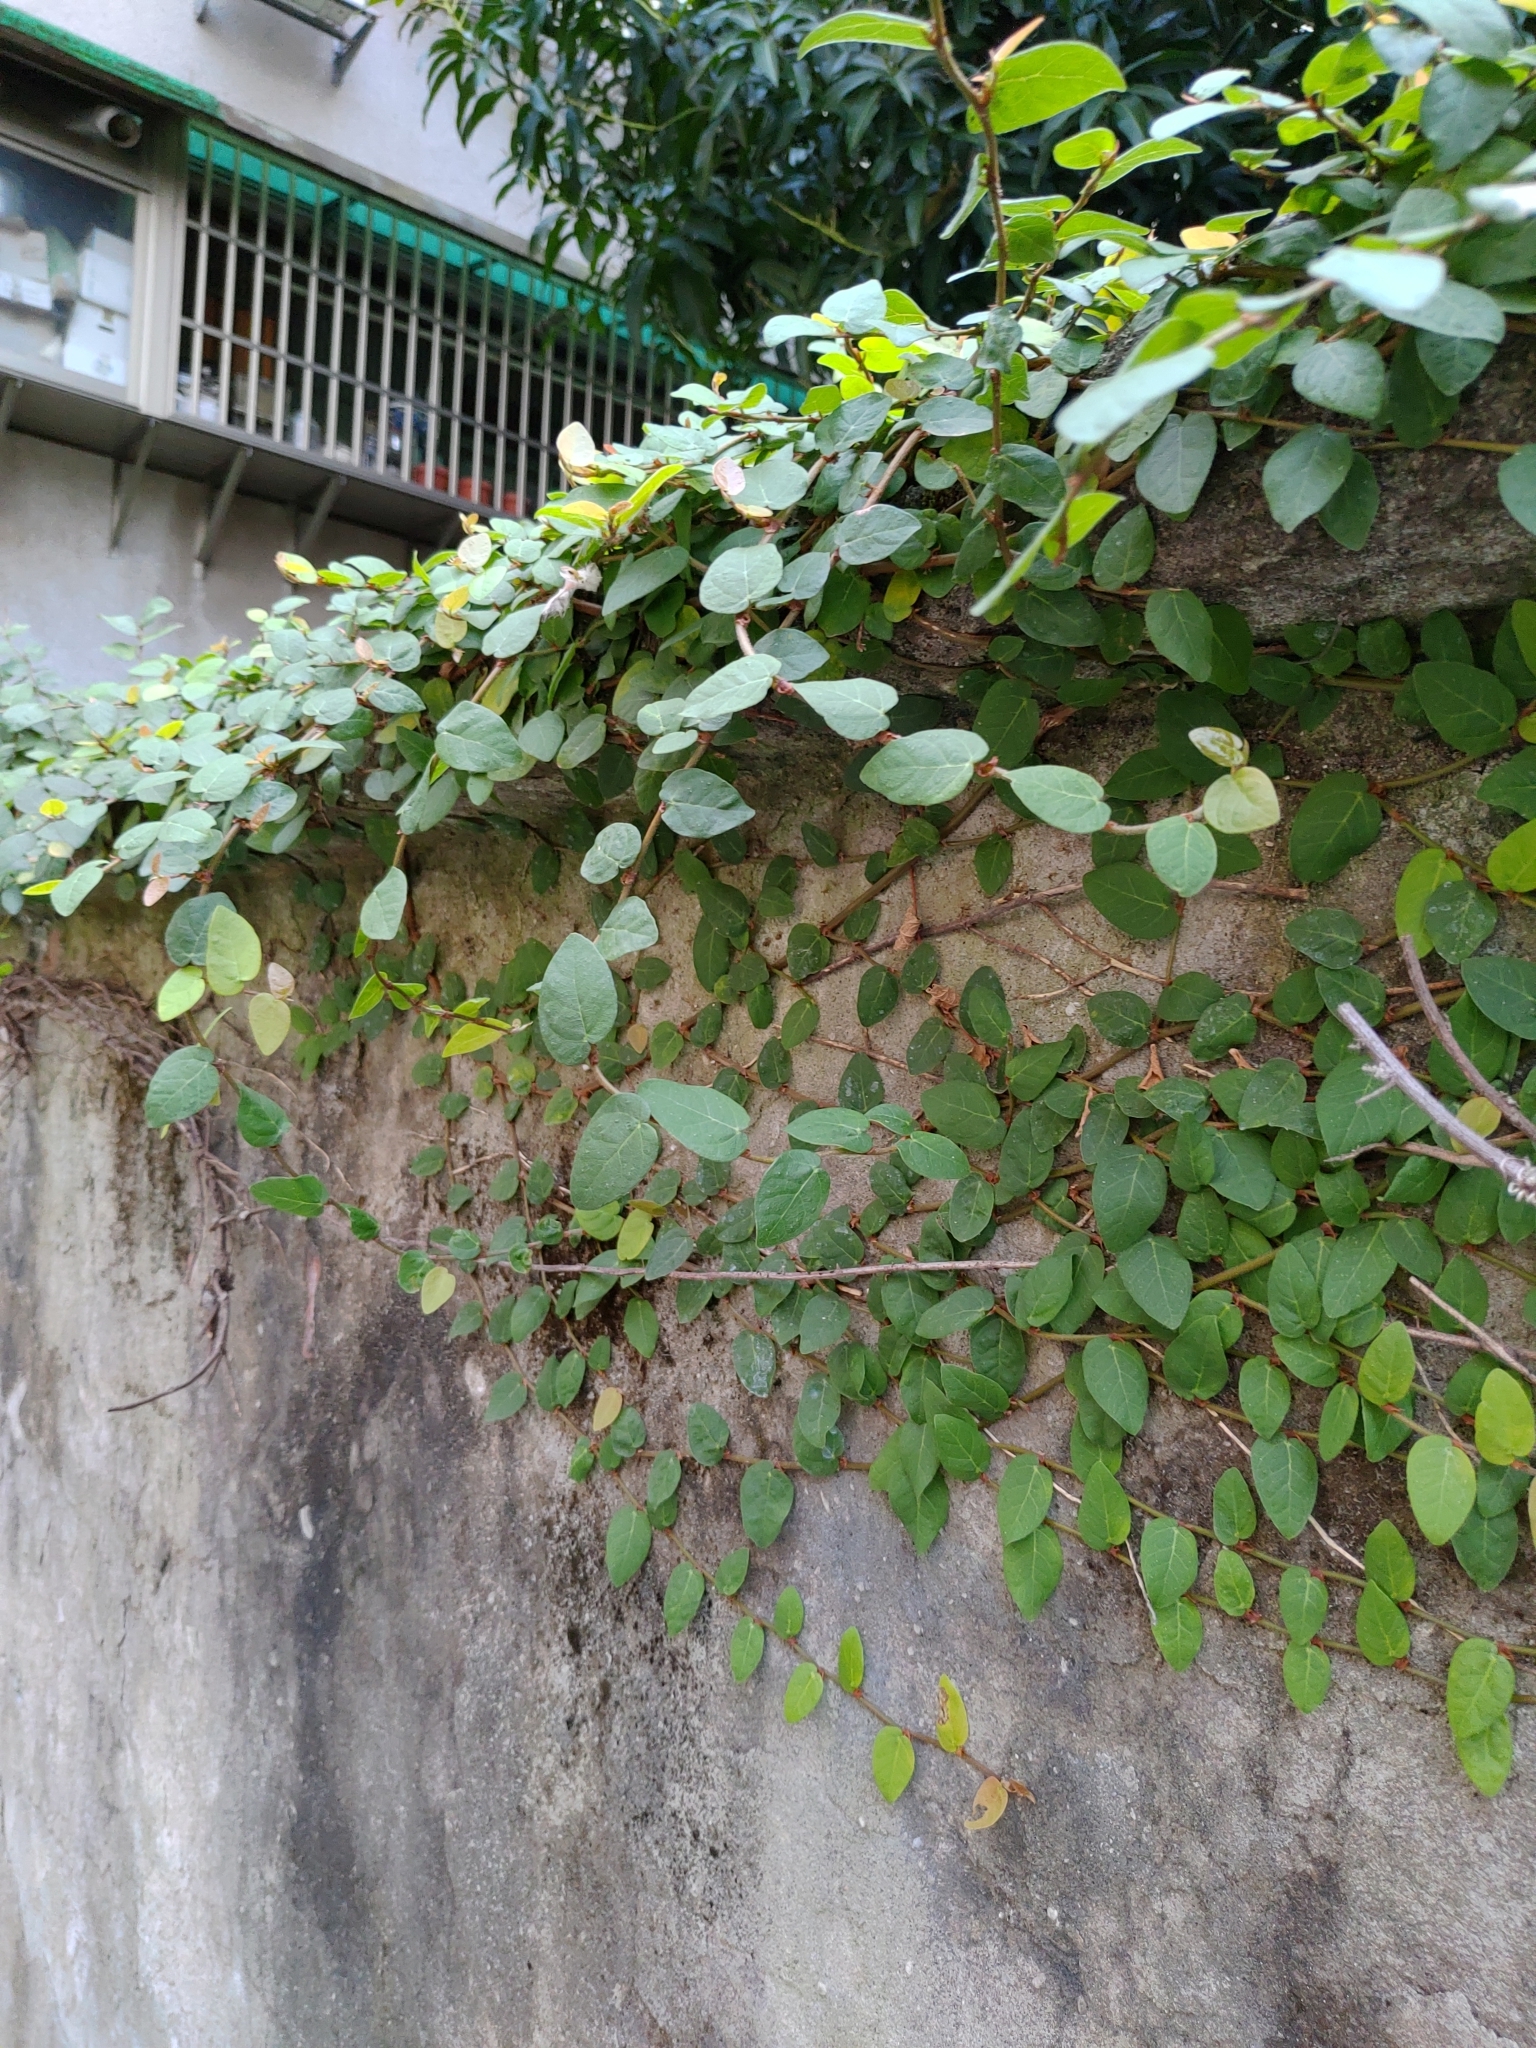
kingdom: Plantae
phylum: Tracheophyta
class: Magnoliopsida
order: Rosales
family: Moraceae
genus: Ficus
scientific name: Ficus pumila
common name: Climbingfig
